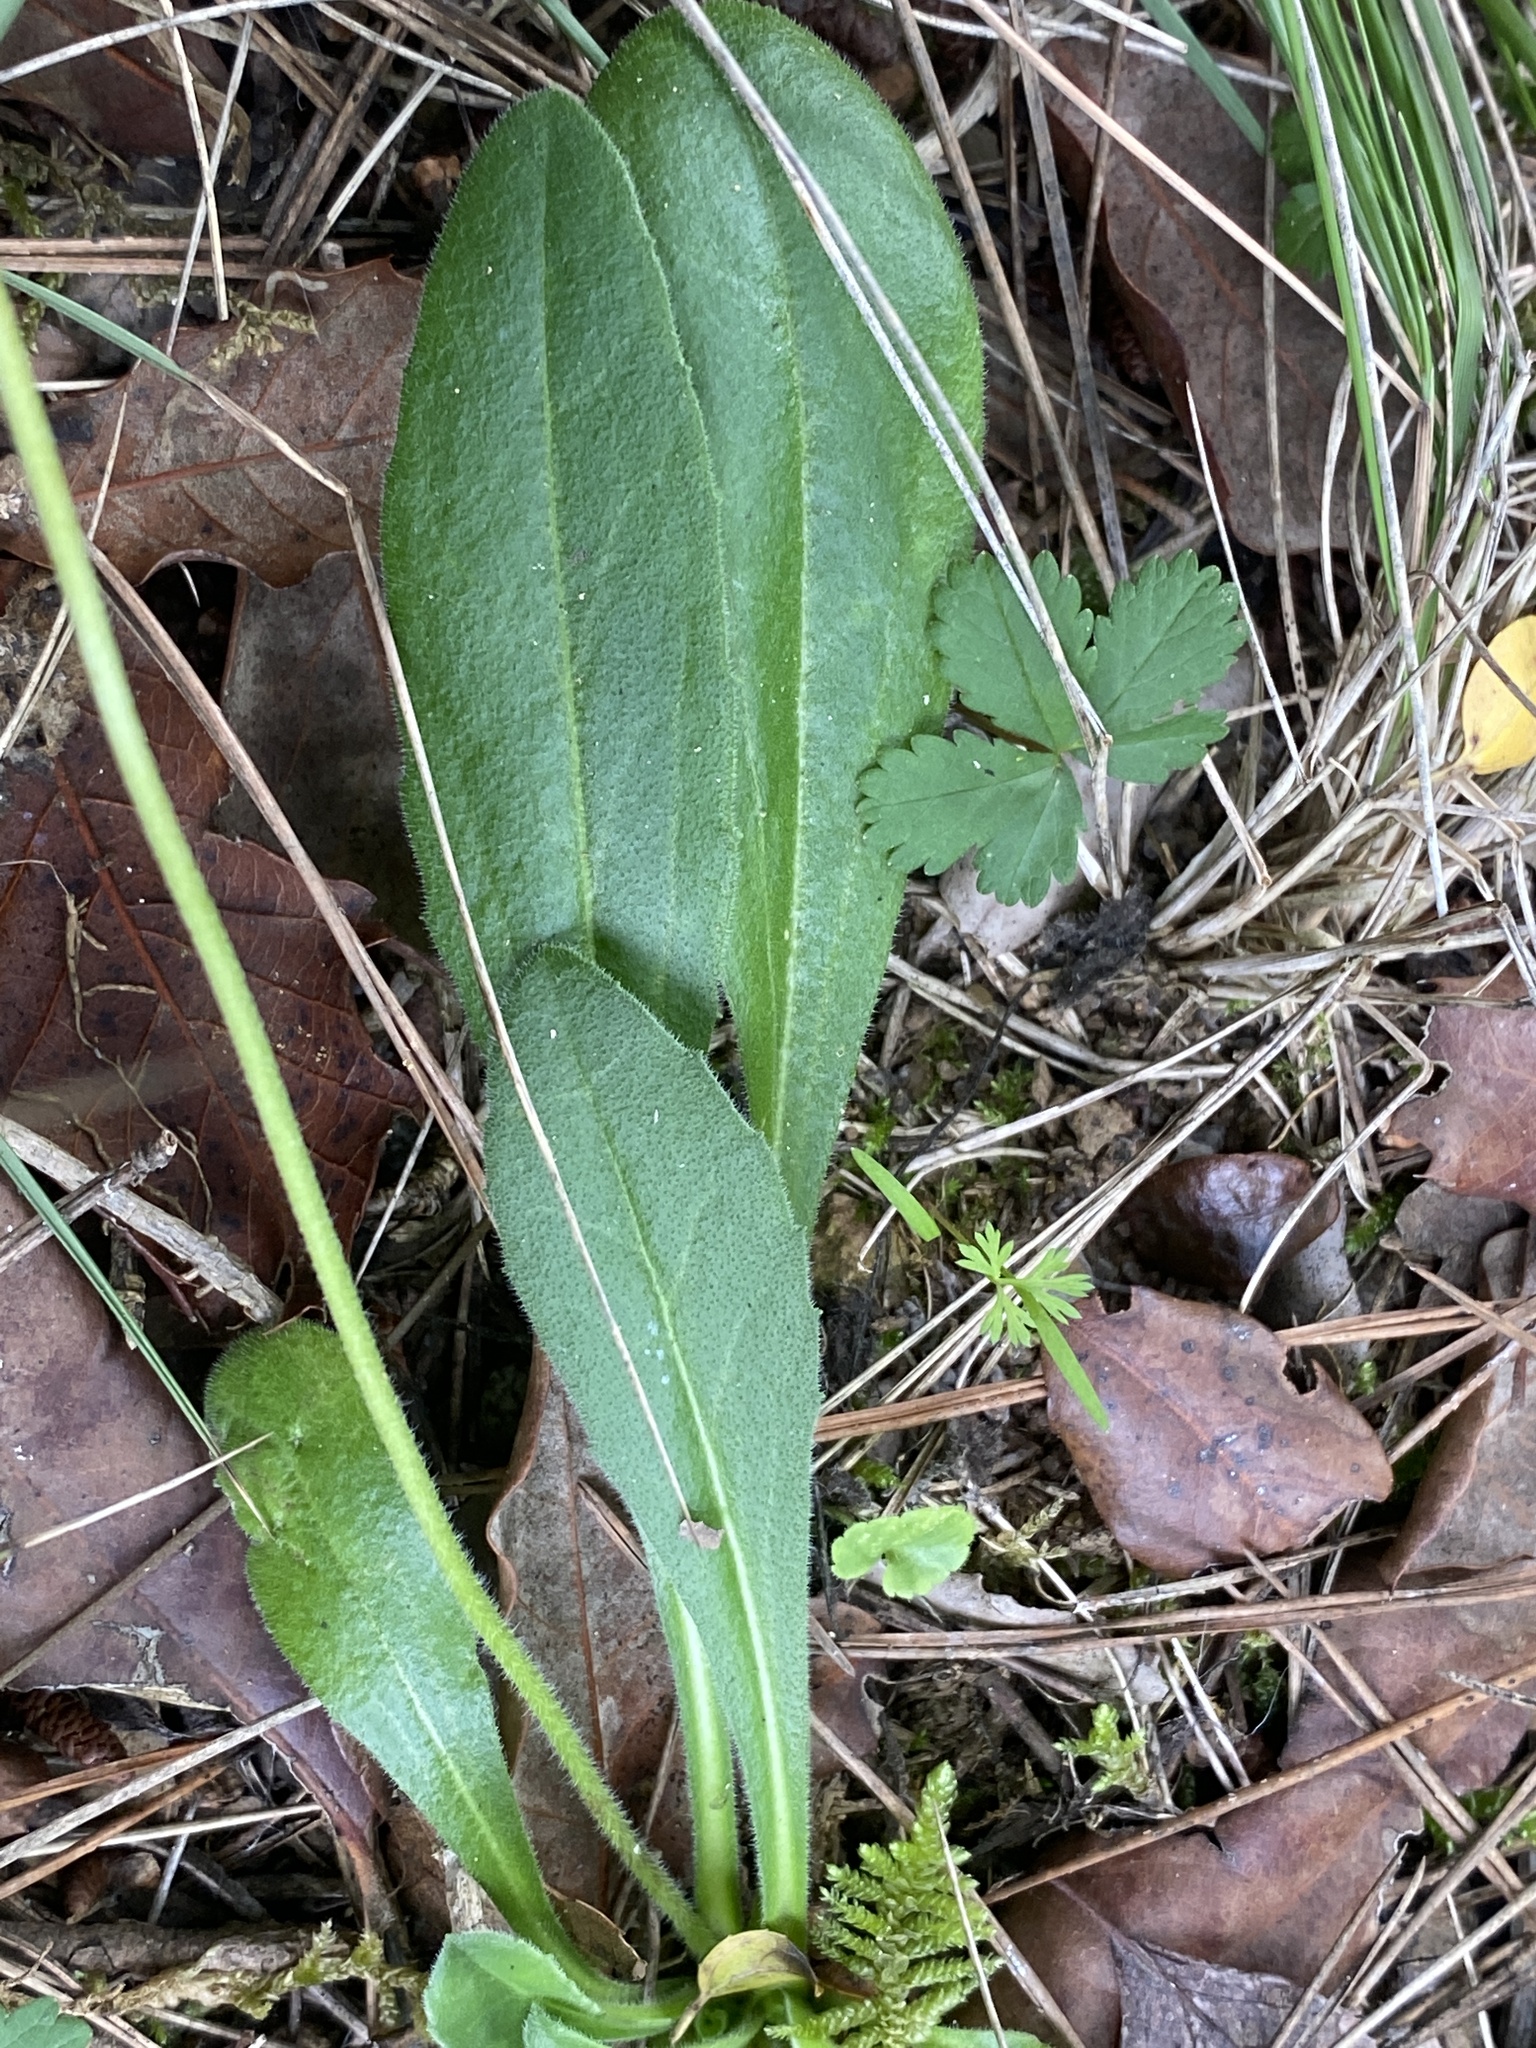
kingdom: Plantae
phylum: Tracheophyta
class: Magnoliopsida
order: Asterales
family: Asteraceae
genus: Bellis
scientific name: Bellis sylvestris
